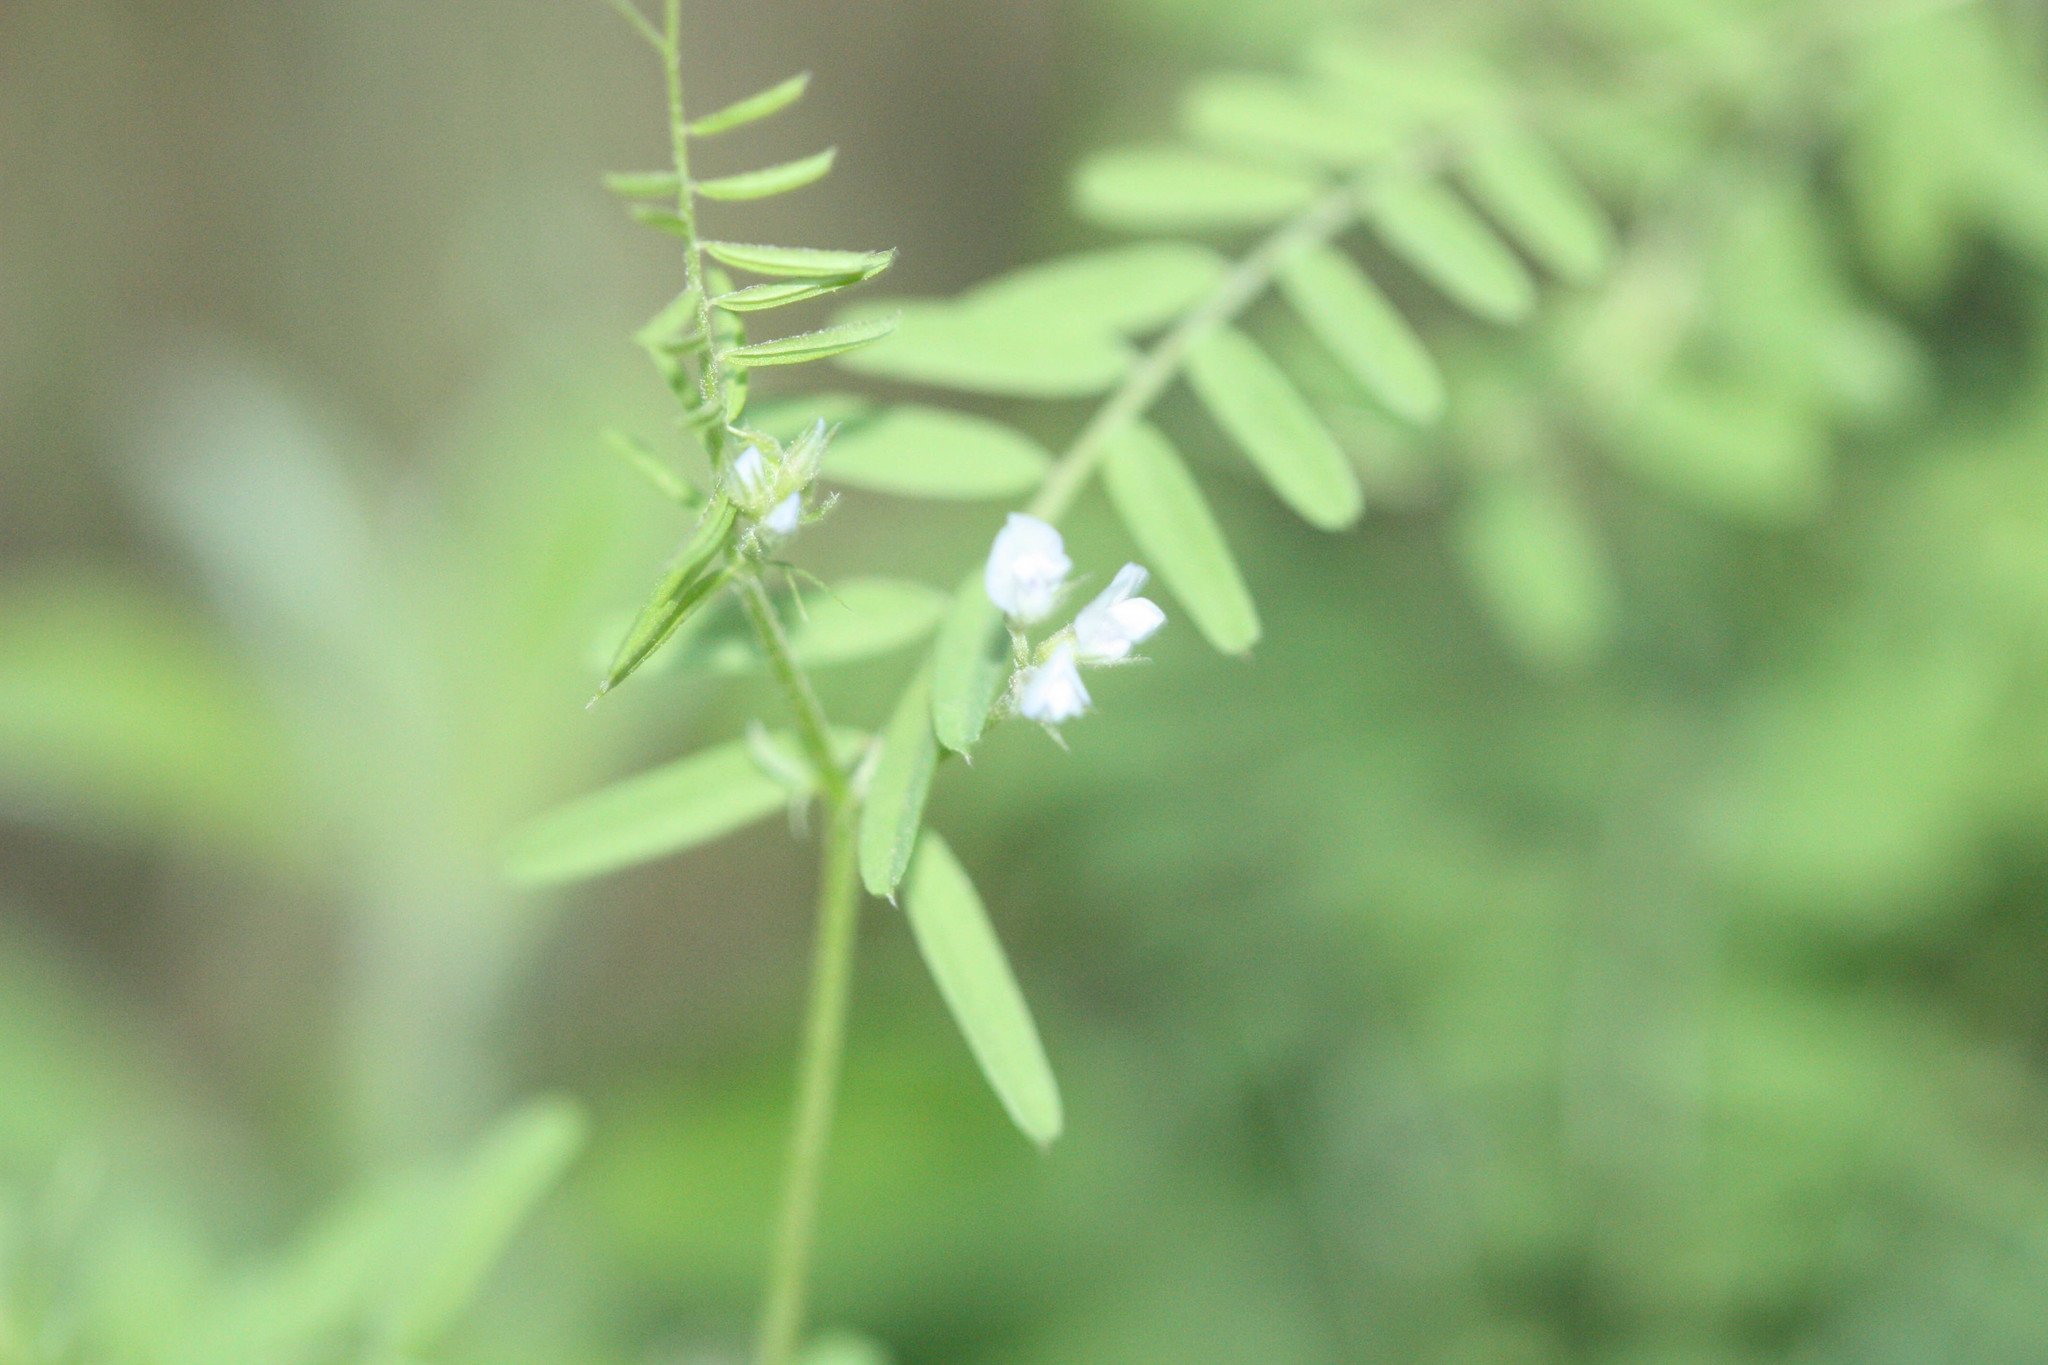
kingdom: Plantae
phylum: Tracheophyta
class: Magnoliopsida
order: Fabales
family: Fabaceae
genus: Vicia
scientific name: Vicia hirsuta
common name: Tiny vetch
